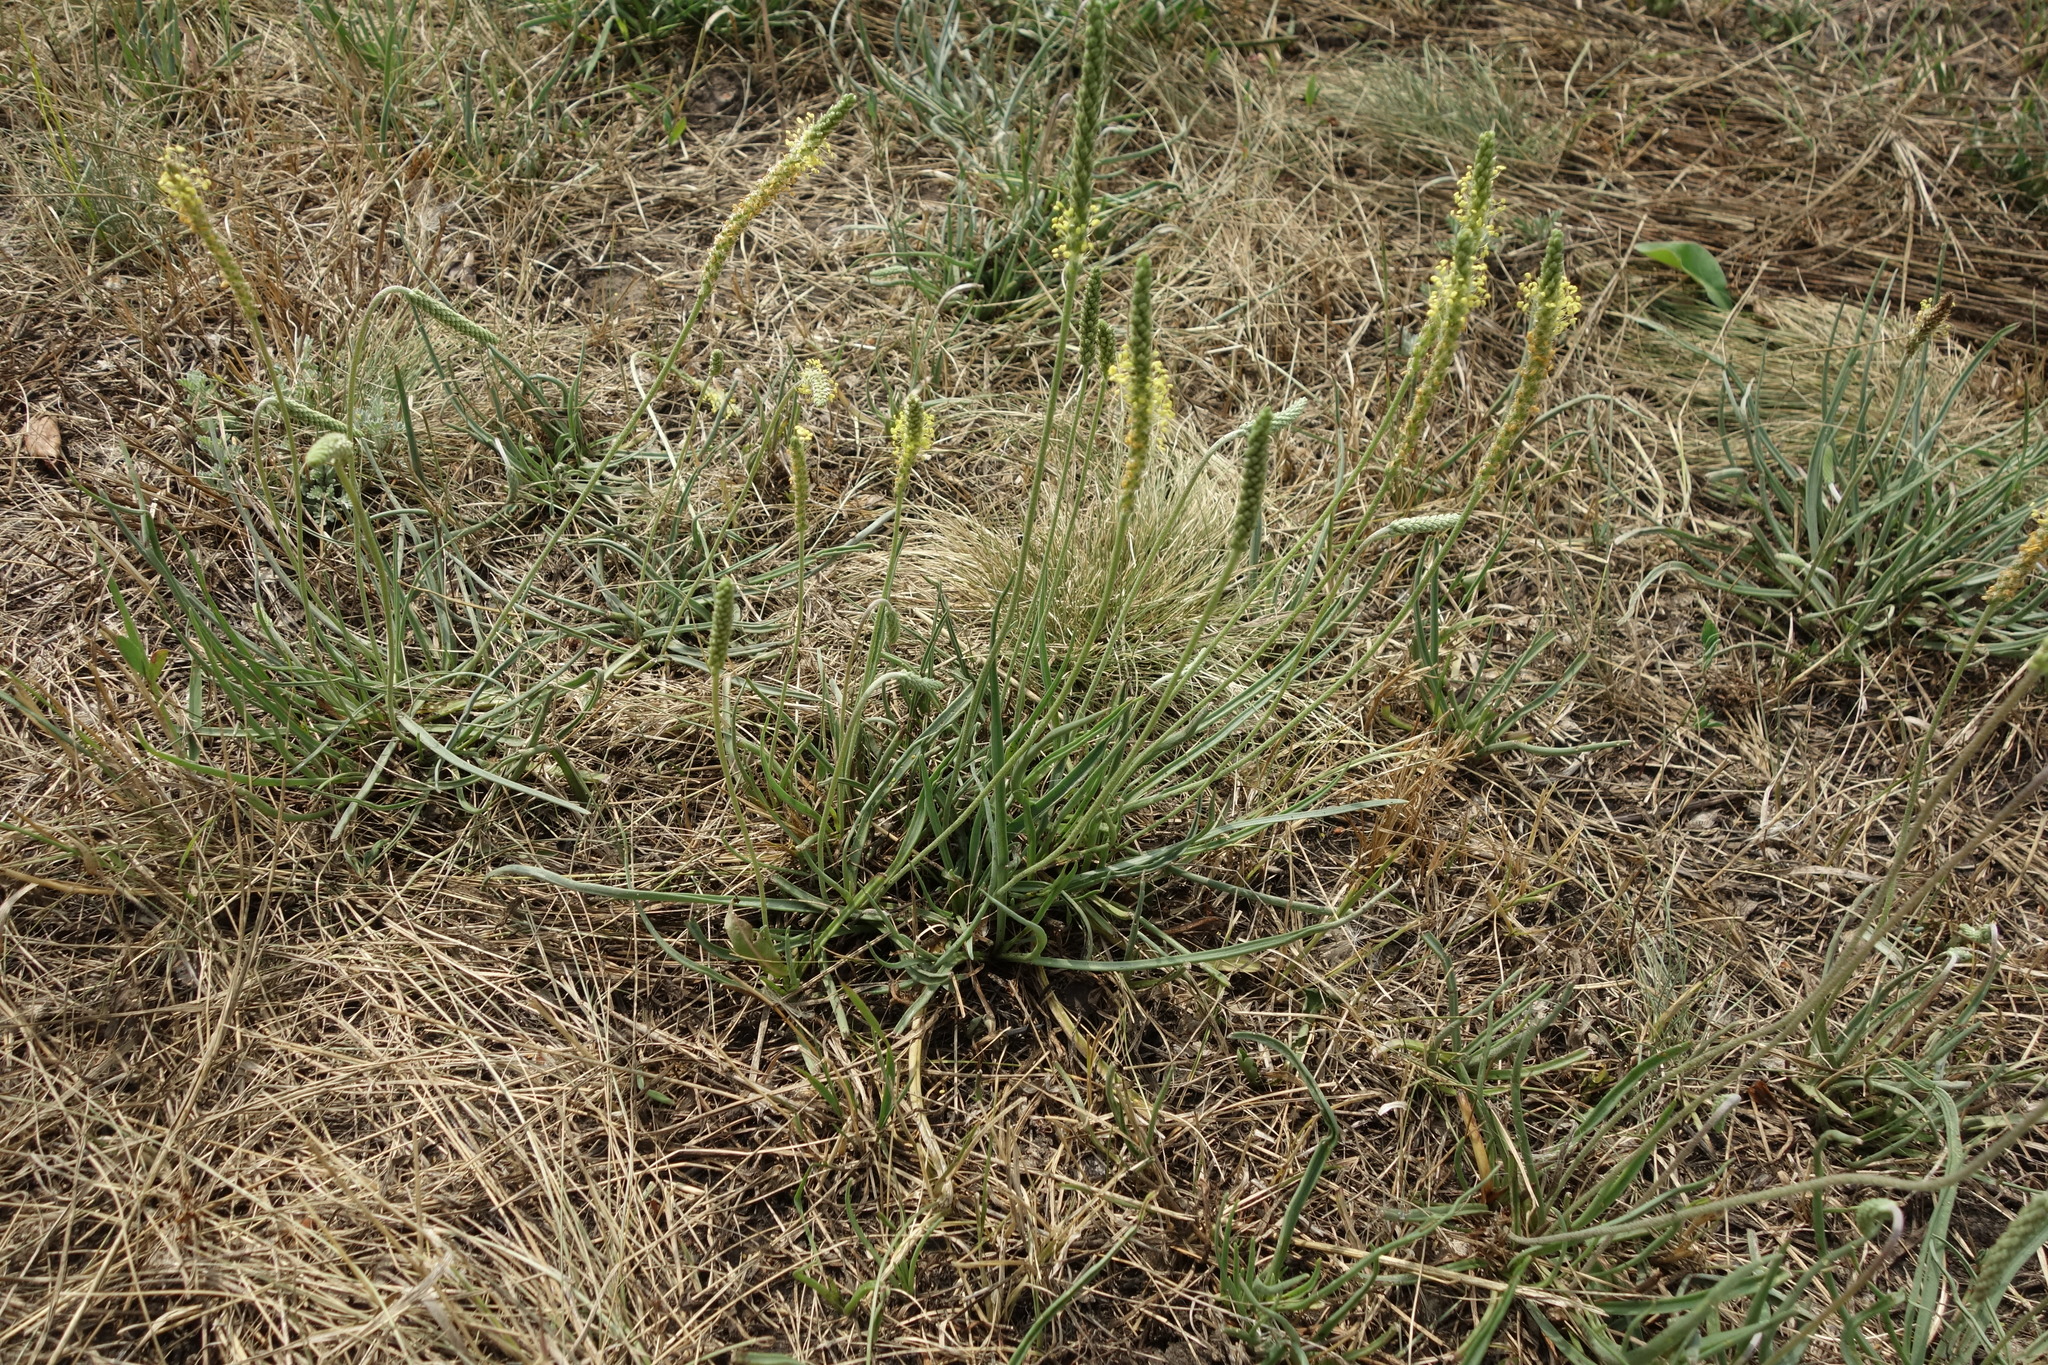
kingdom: Plantae
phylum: Tracheophyta
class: Magnoliopsida
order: Lamiales
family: Plantaginaceae
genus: Plantago
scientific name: Plantago salsa
